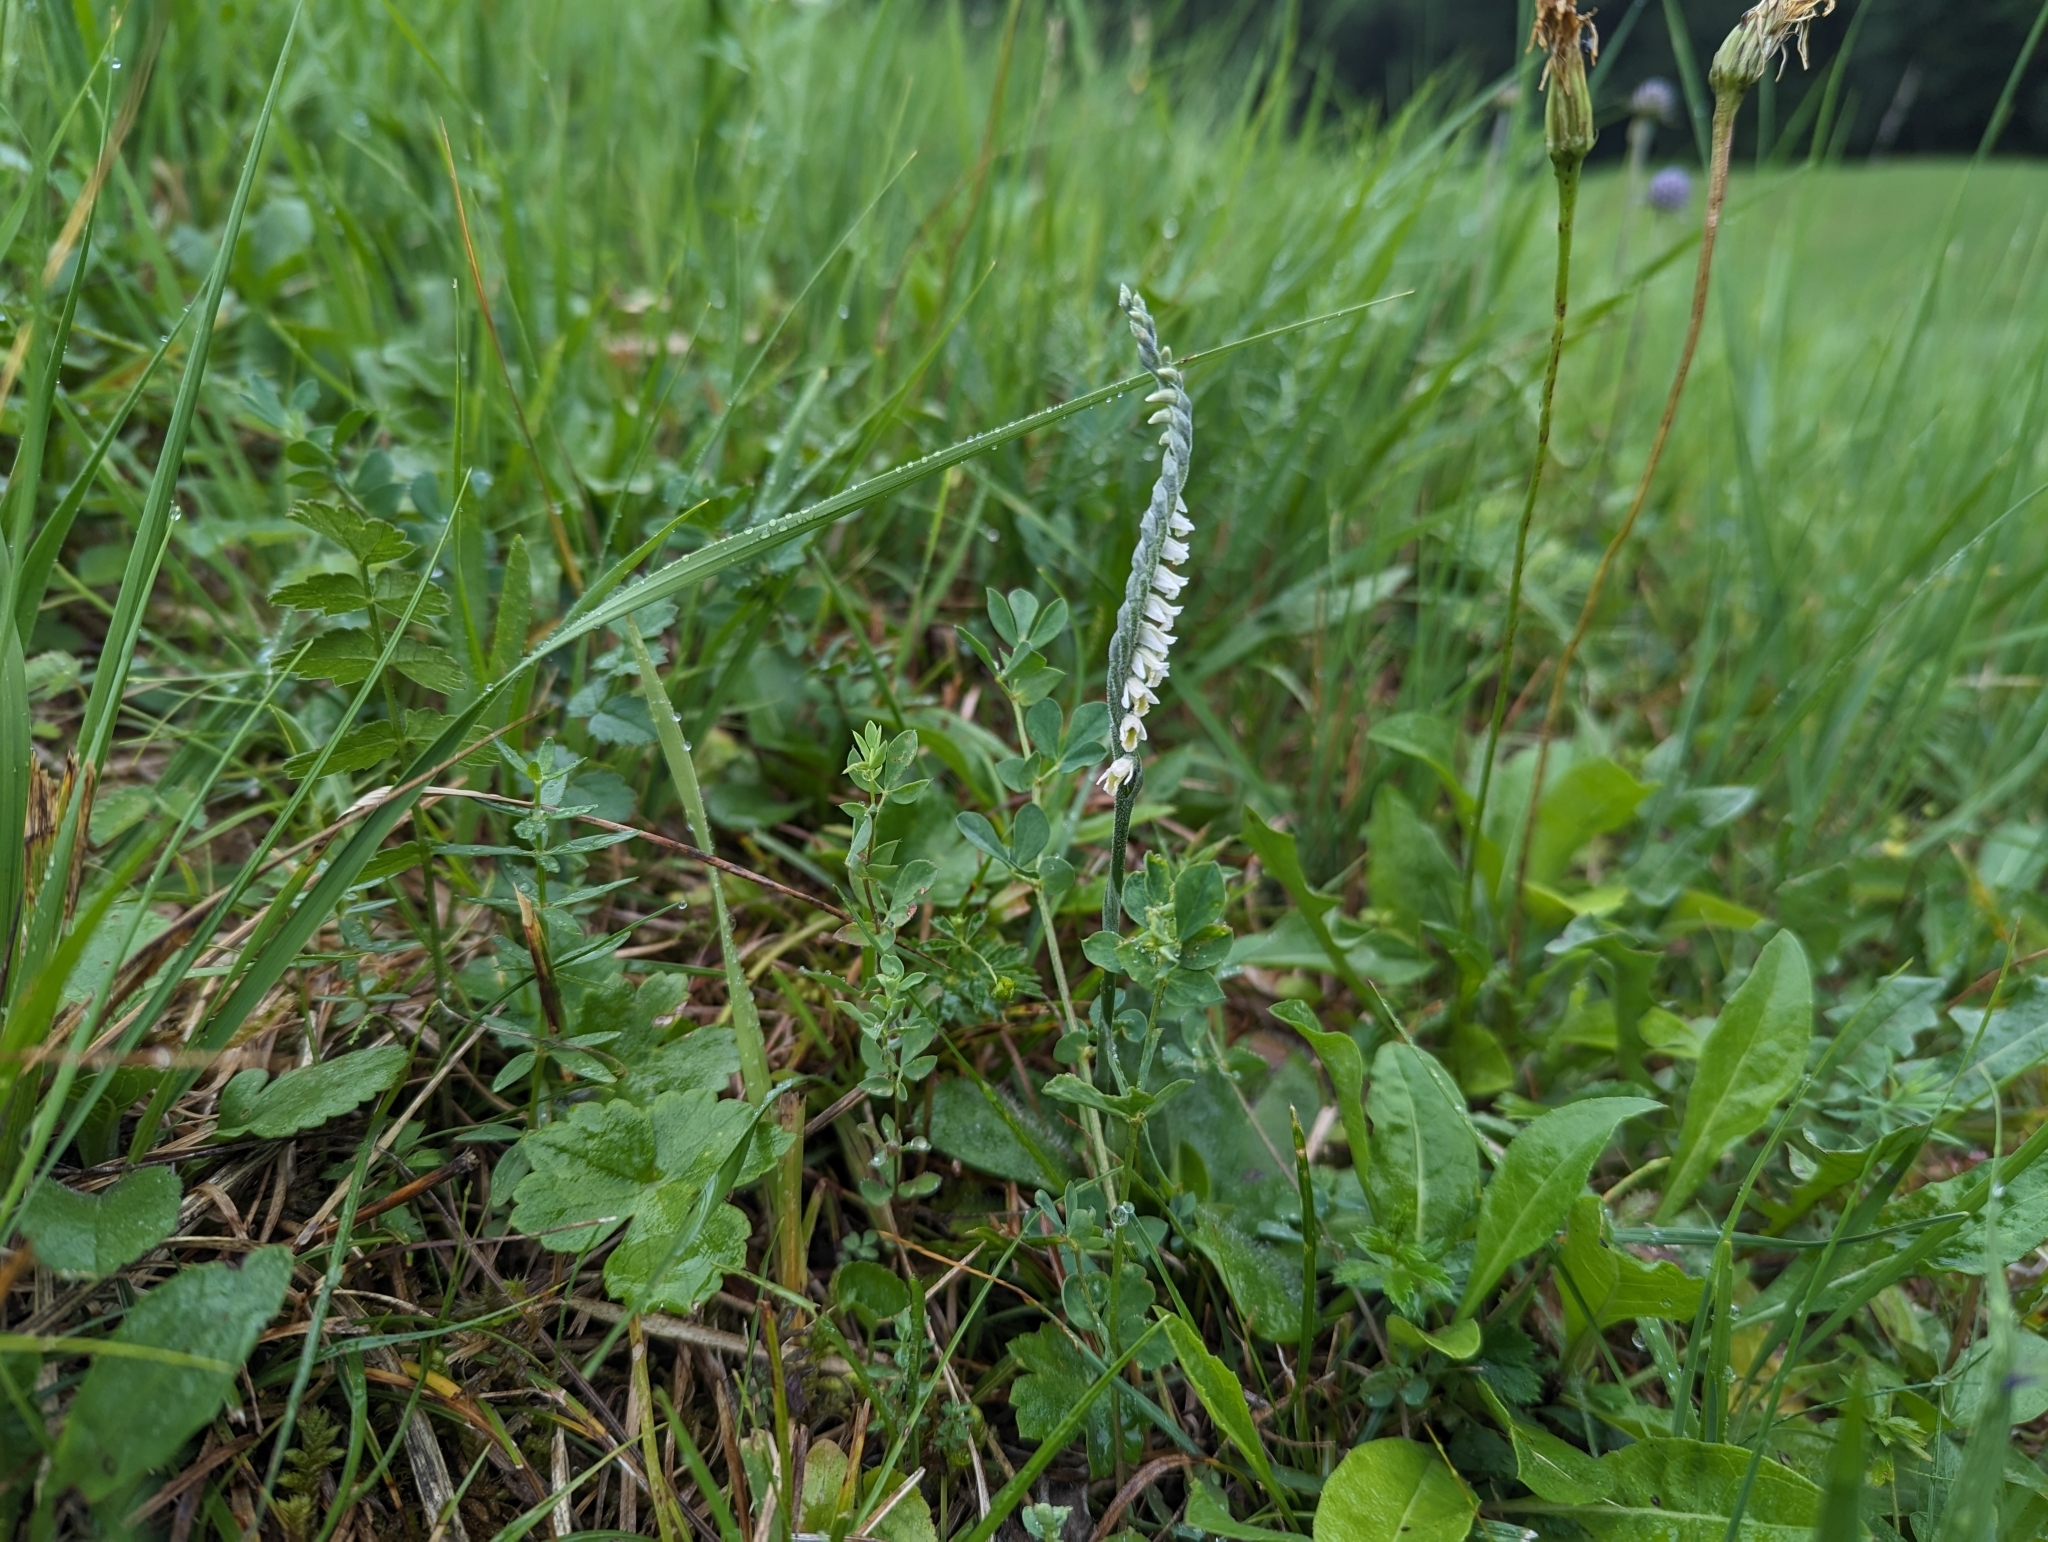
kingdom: Plantae
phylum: Tracheophyta
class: Liliopsida
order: Asparagales
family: Orchidaceae
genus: Spiranthes
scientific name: Spiranthes spiralis
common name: Autumn lady's-tresses
